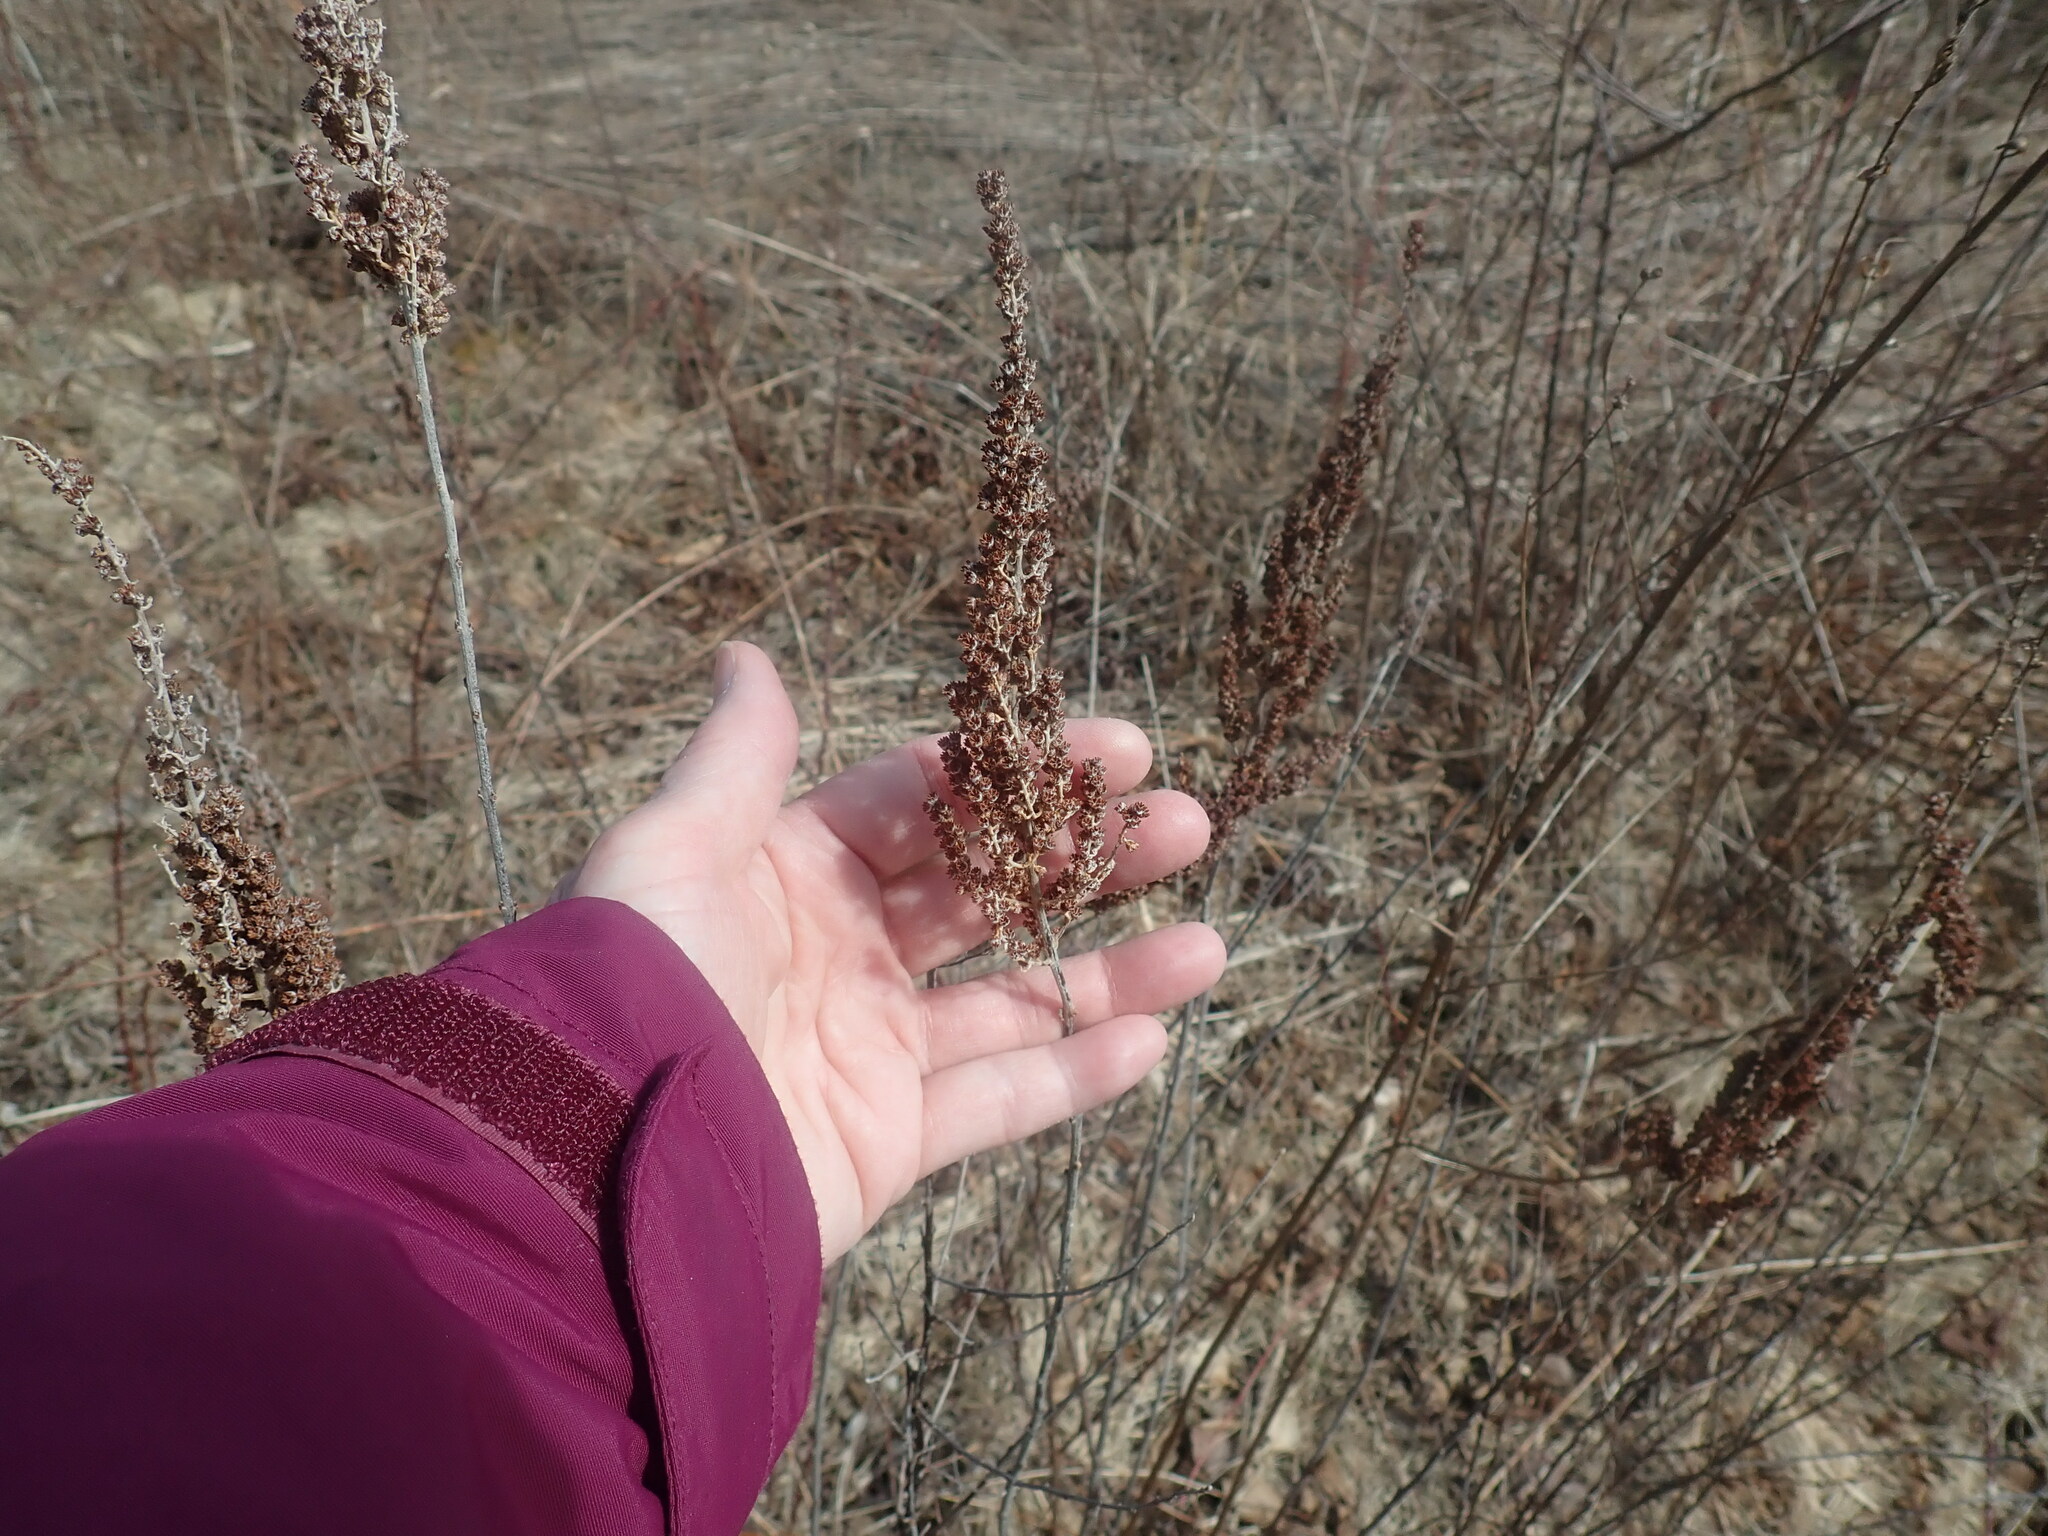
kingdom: Plantae
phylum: Tracheophyta
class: Magnoliopsida
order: Rosales
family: Rosaceae
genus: Spiraea
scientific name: Spiraea tomentosa
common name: Hardhack
